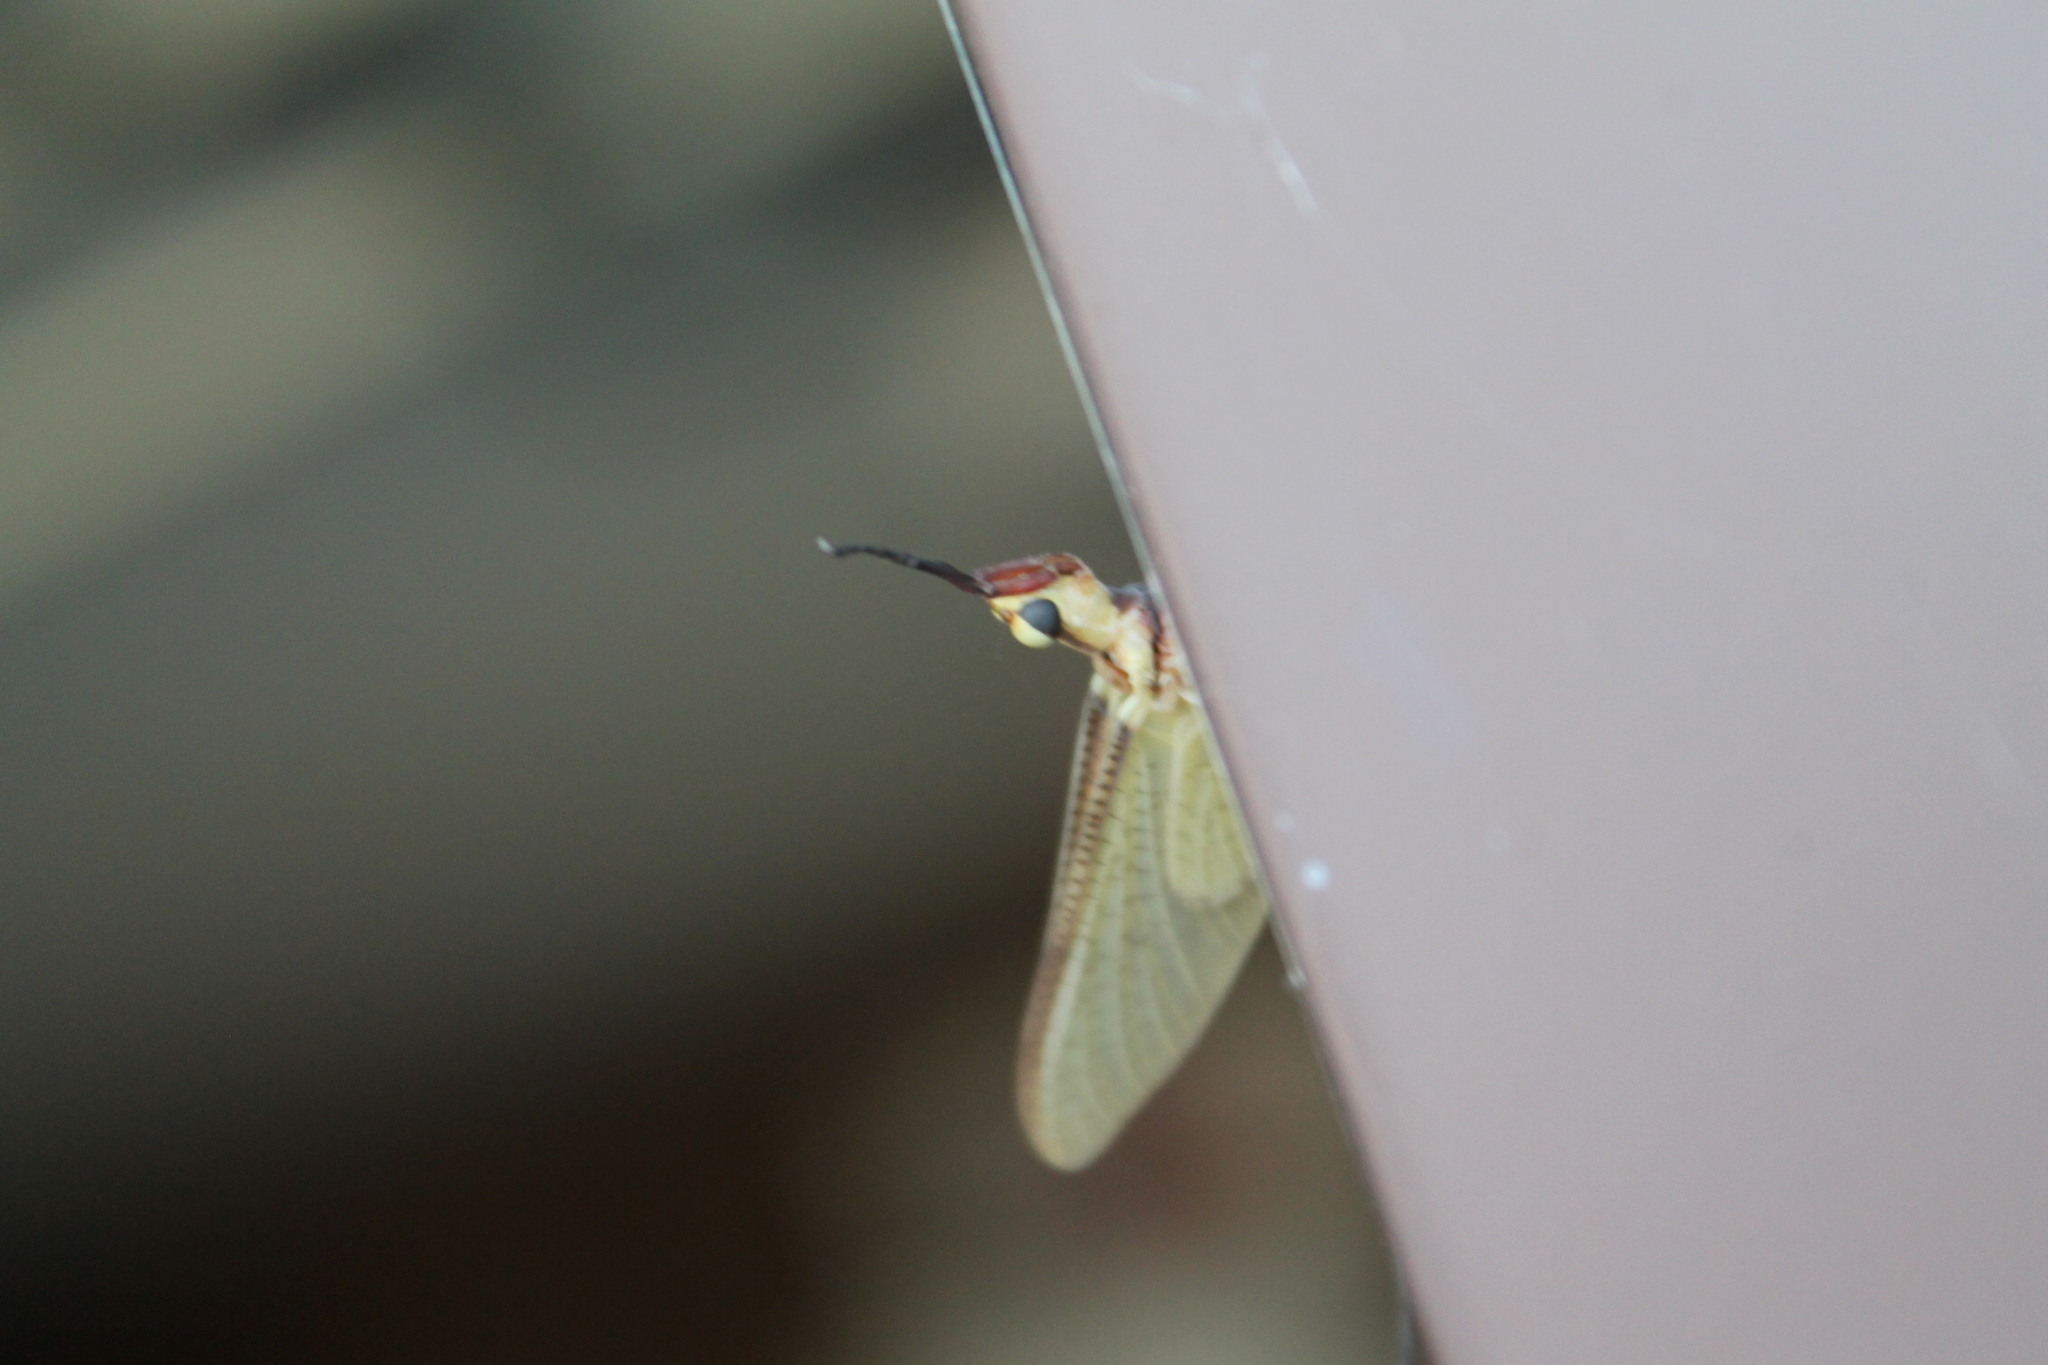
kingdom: Animalia
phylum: Arthropoda
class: Insecta
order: Ephemeroptera
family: Ephemeridae
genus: Hexagenia
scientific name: Hexagenia limbata
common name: Giant mayfly
